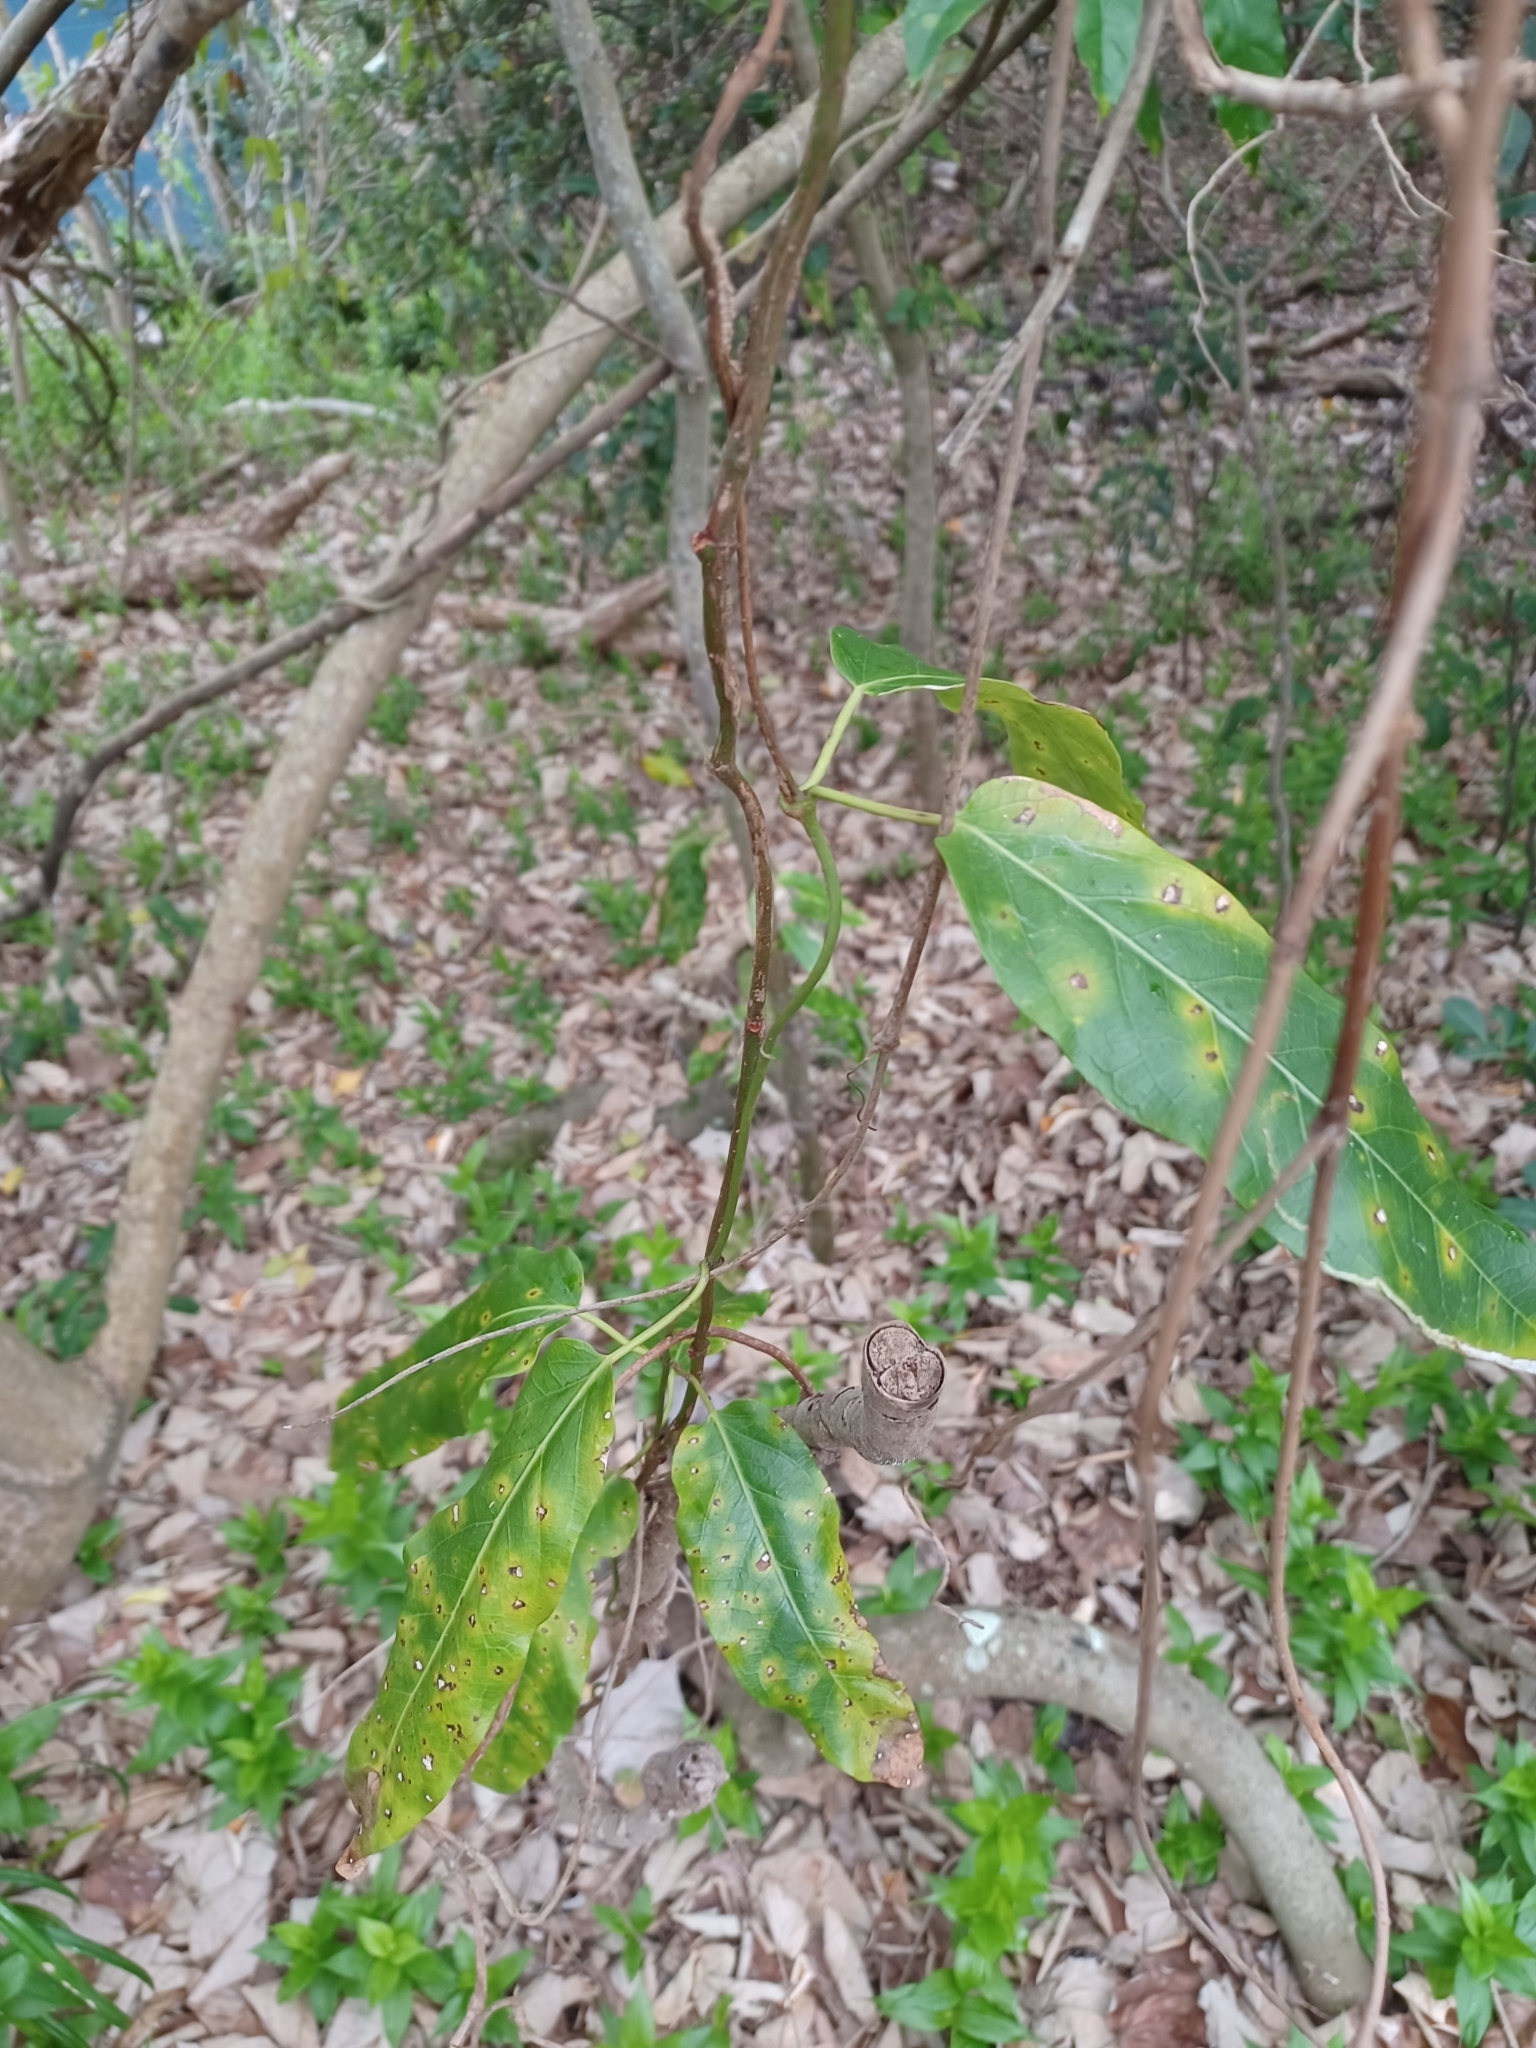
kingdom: Plantae
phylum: Tracheophyta
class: Magnoliopsida
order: Gentianales
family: Apocynaceae
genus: Parsonsia
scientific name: Parsonsia straminea
